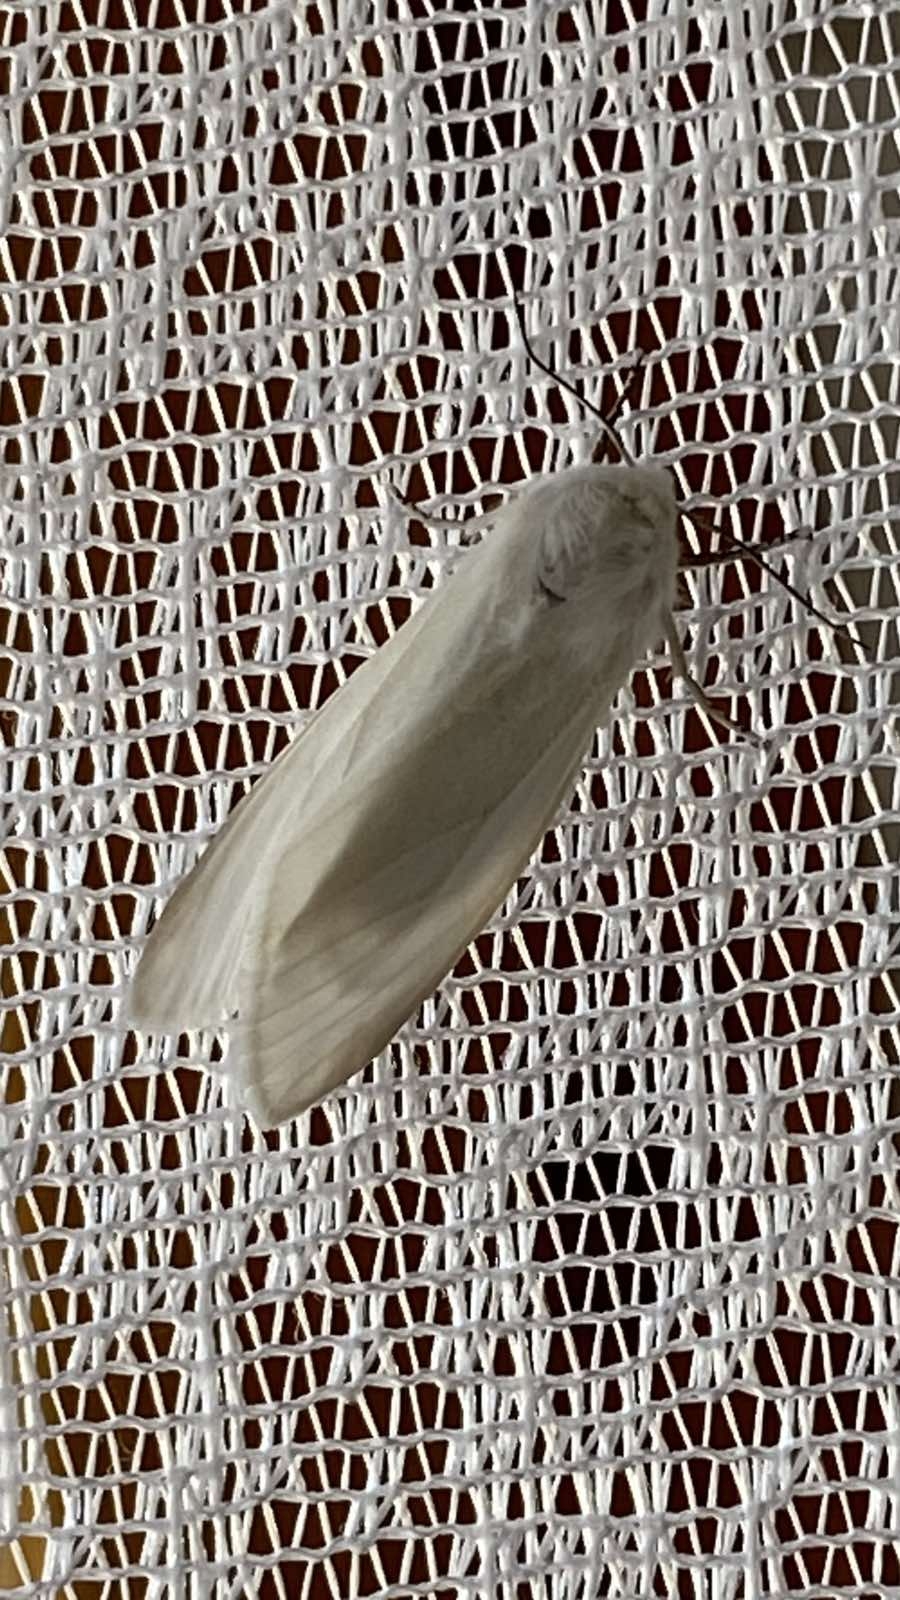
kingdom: Animalia
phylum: Arthropoda
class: Insecta
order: Lepidoptera
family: Erebidae
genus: Hyphantria
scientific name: Hyphantria cunea
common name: American white moth
